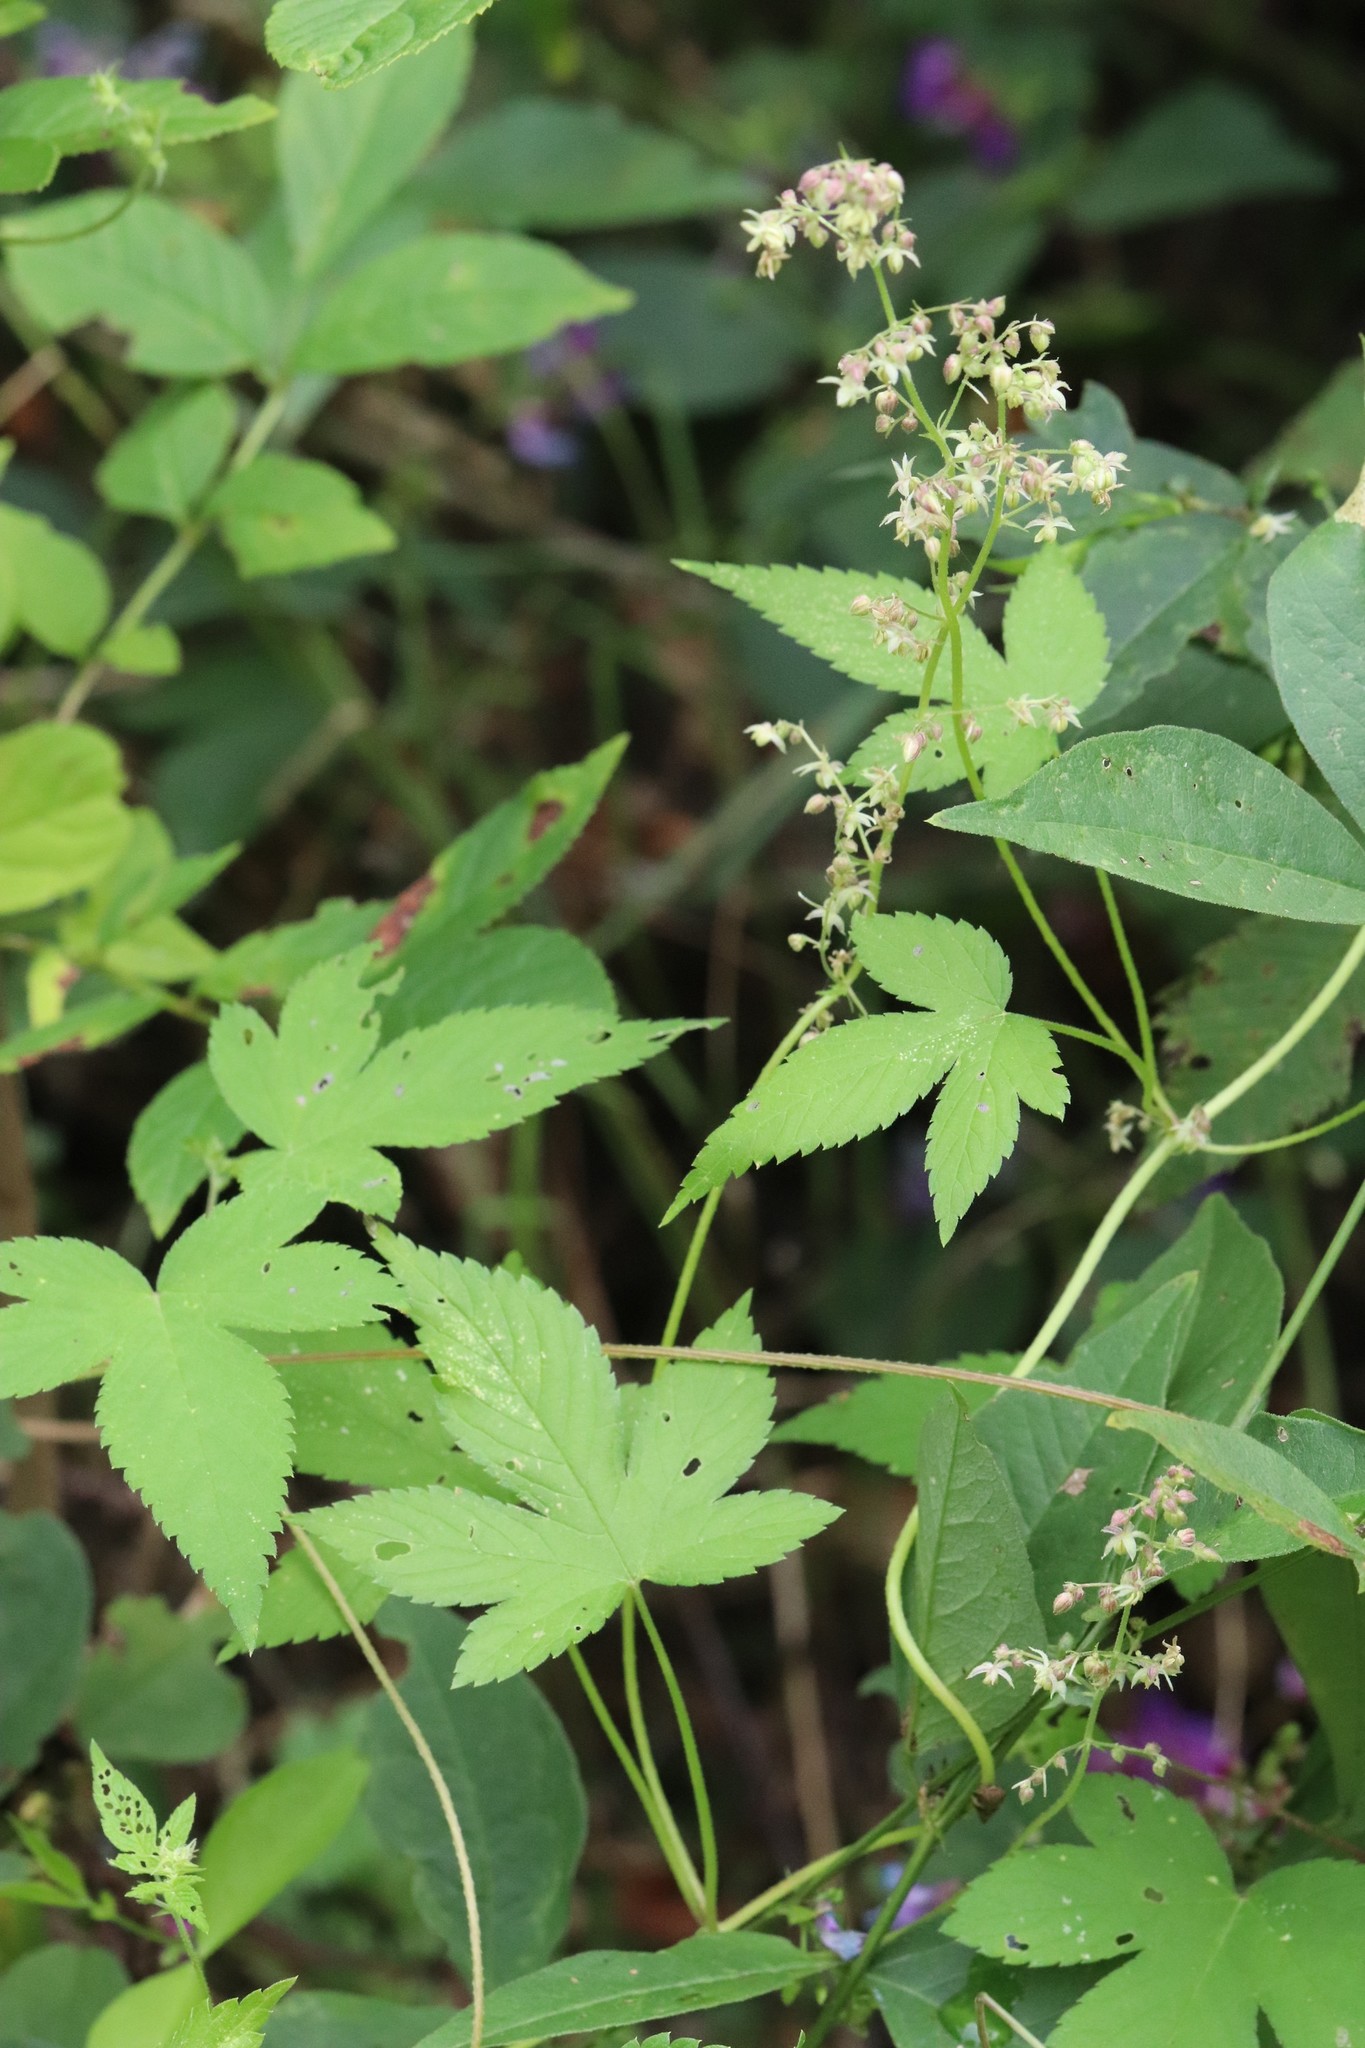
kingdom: Plantae
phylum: Tracheophyta
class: Magnoliopsida
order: Rosales
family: Cannabaceae
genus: Humulus
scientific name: Humulus scandens
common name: Japanese hop
